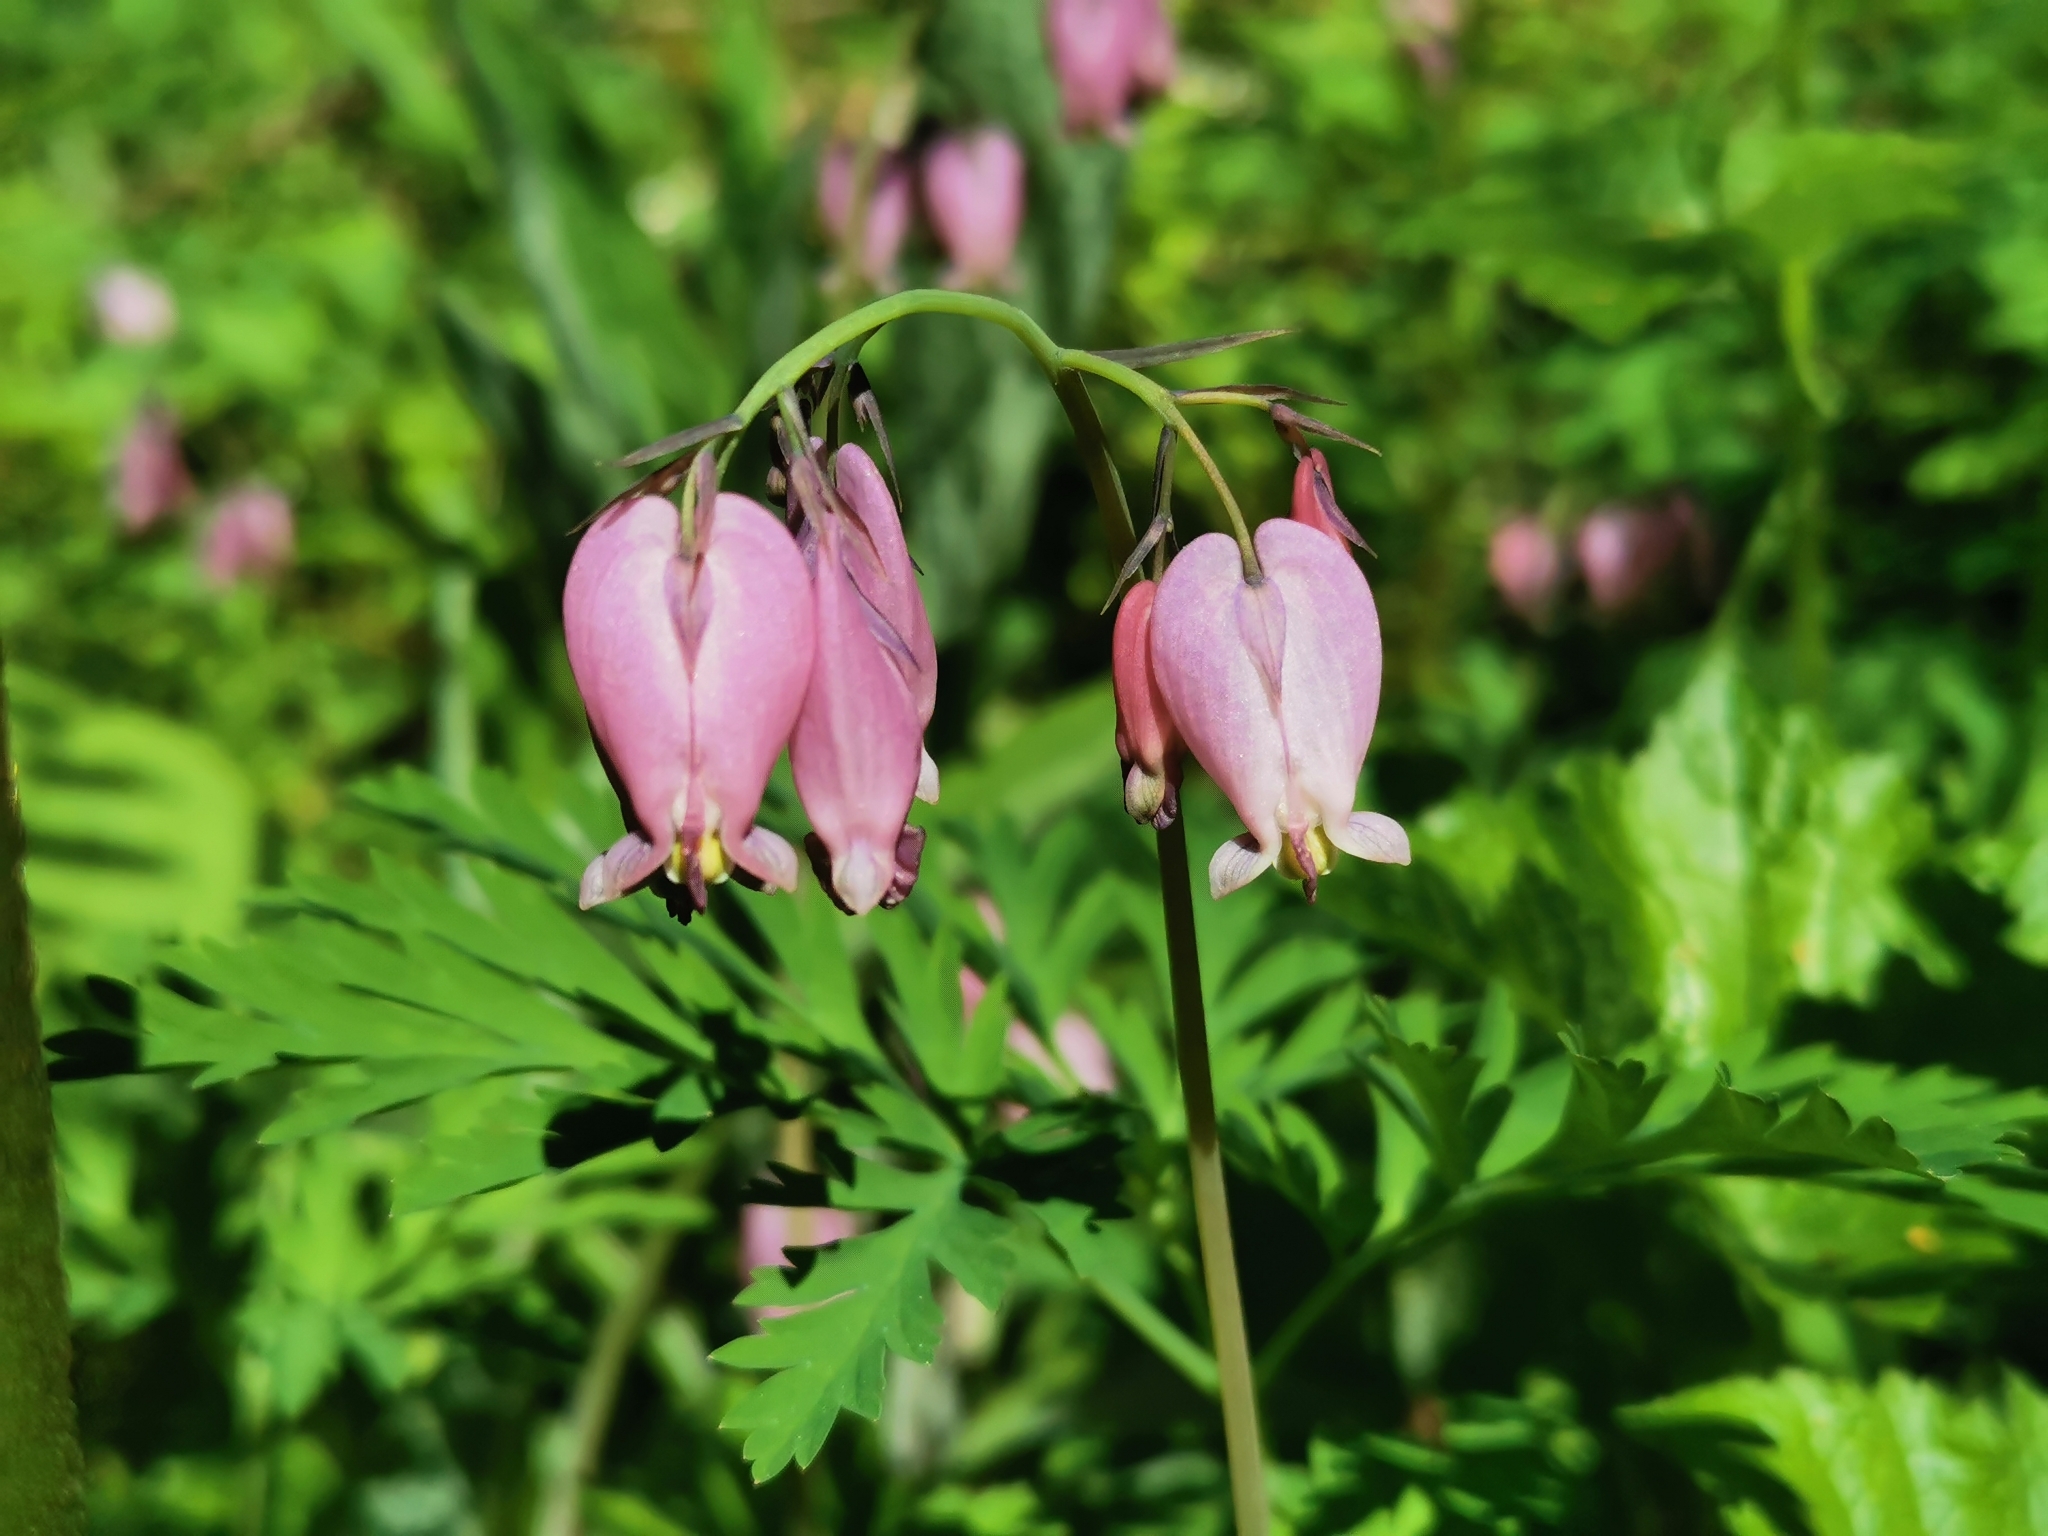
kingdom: Plantae
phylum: Tracheophyta
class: Magnoliopsida
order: Ranunculales
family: Papaveraceae
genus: Dicentra
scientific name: Dicentra formosa
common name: Bleeding-heart
